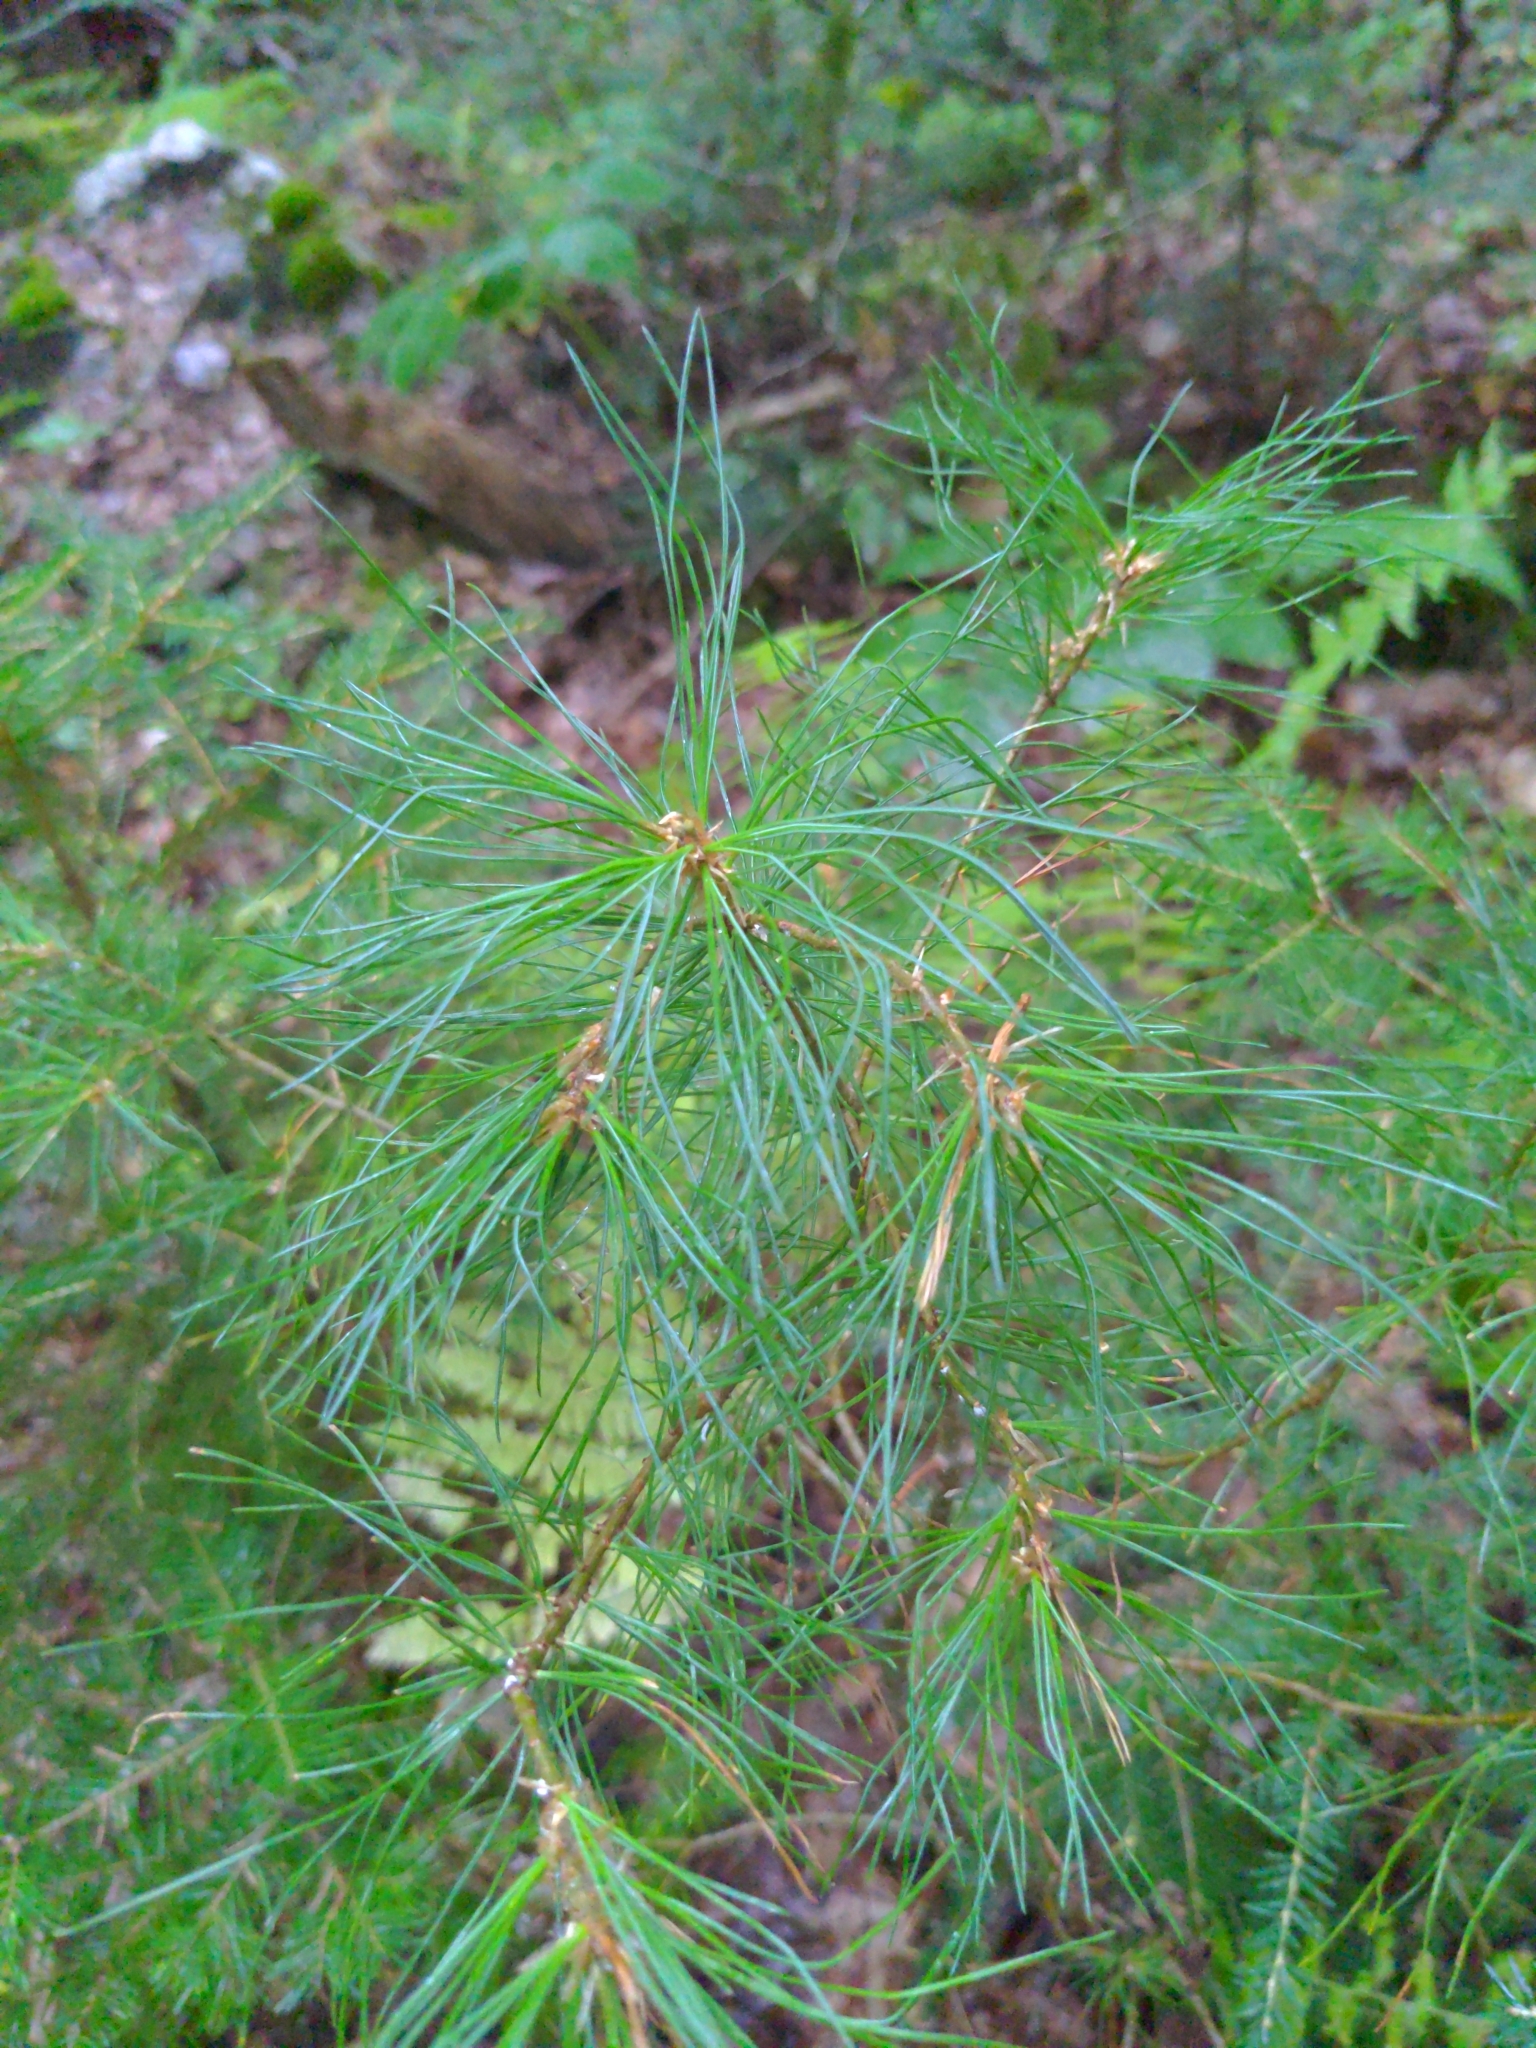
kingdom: Plantae
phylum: Tracheophyta
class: Pinopsida
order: Pinales
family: Pinaceae
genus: Pinus
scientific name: Pinus strobus
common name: Weymouth pine
